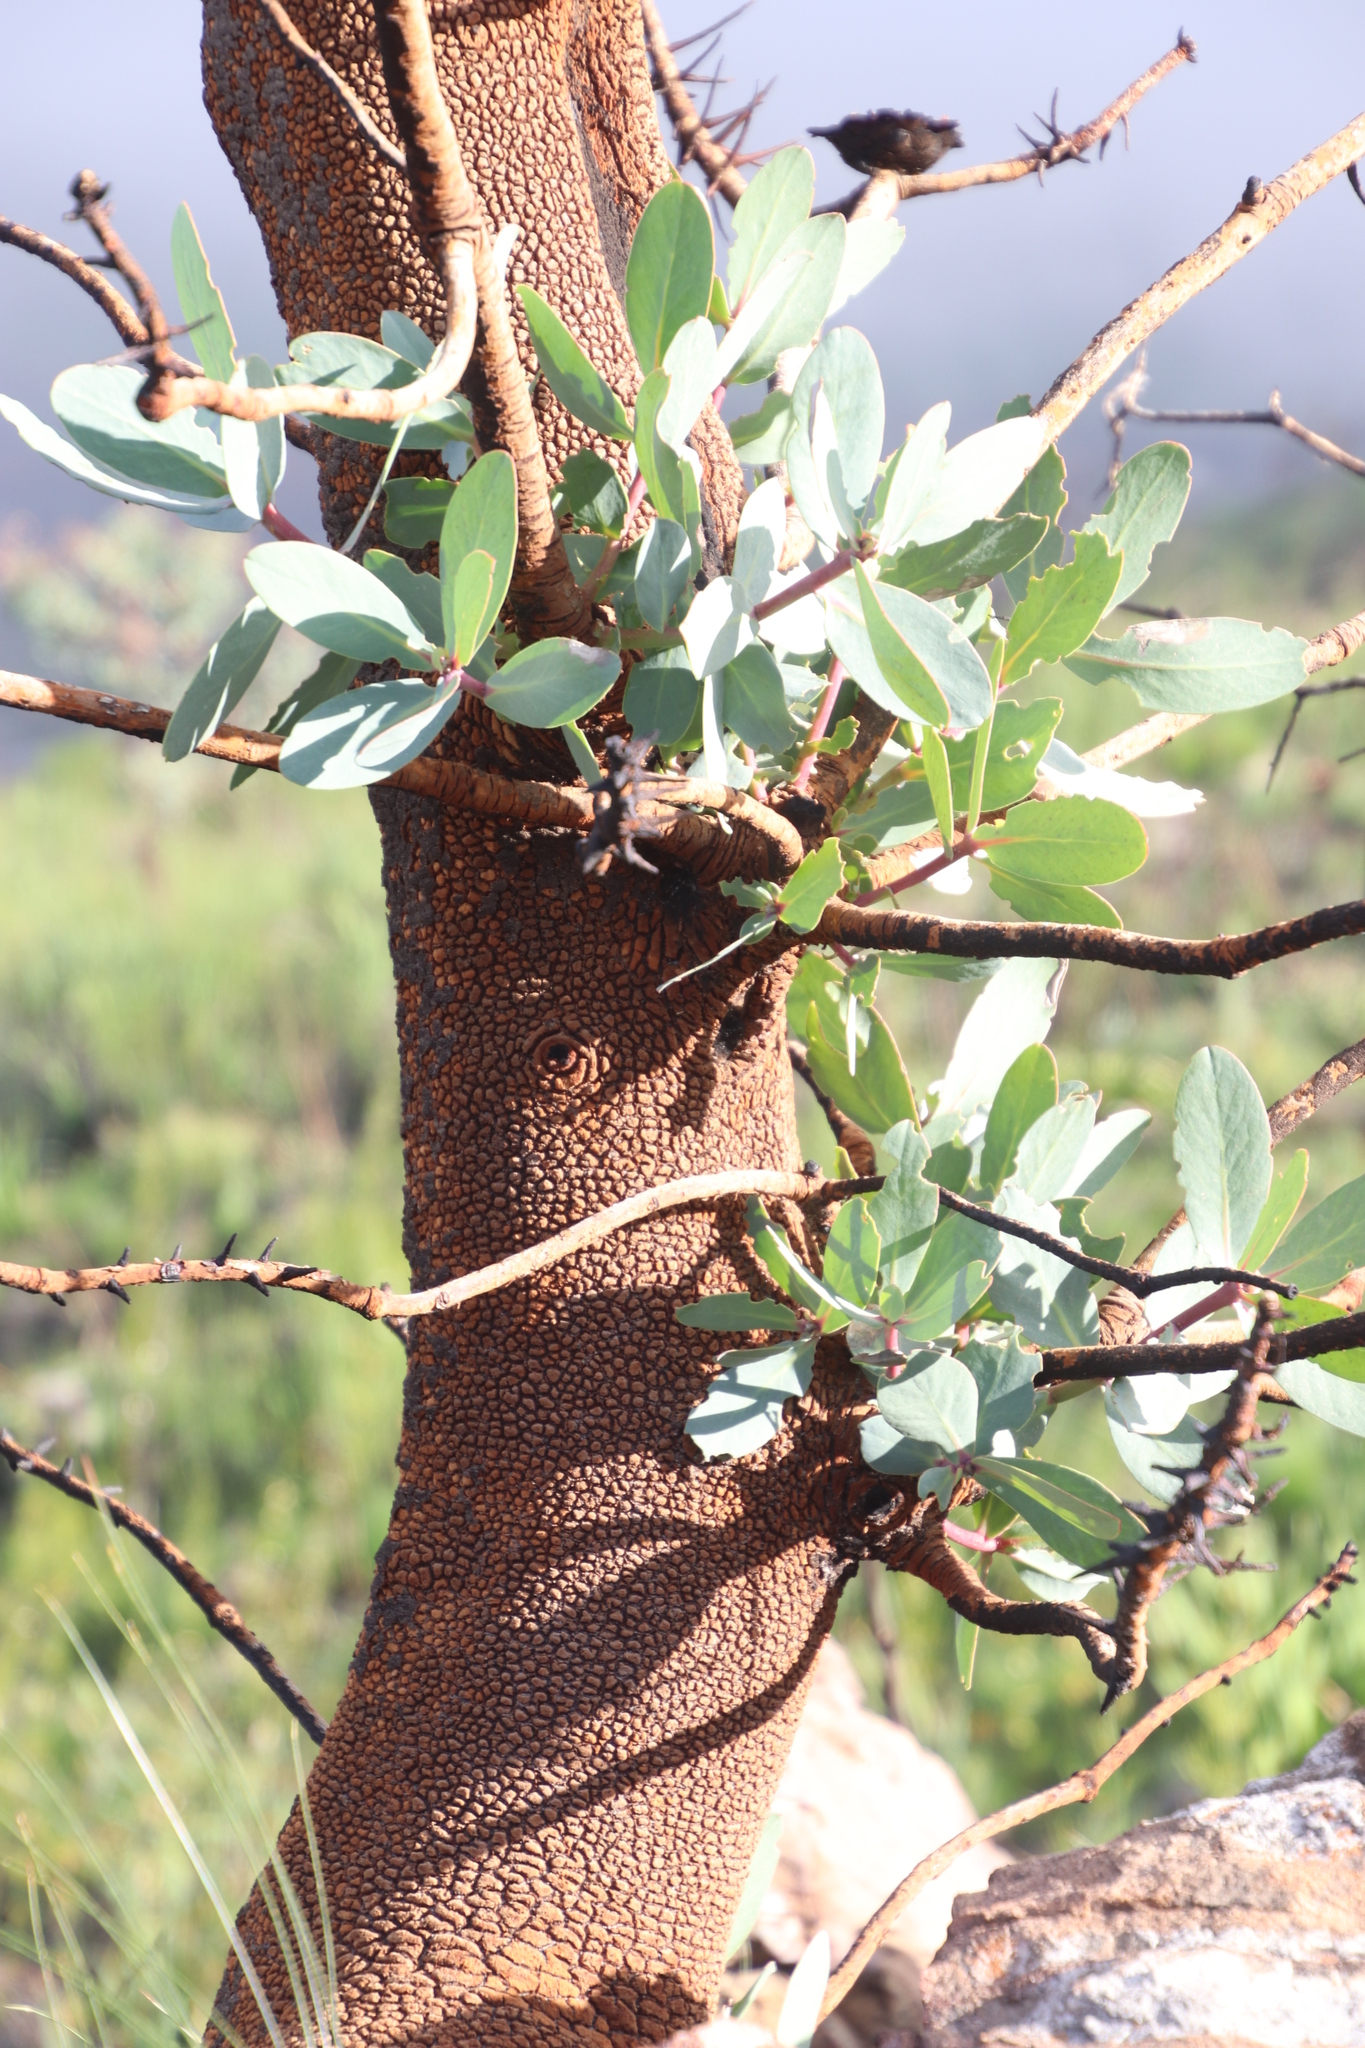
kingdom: Plantae
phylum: Tracheophyta
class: Magnoliopsida
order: Proteales
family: Proteaceae
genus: Protea
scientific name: Protea nitida
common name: Tree protea
